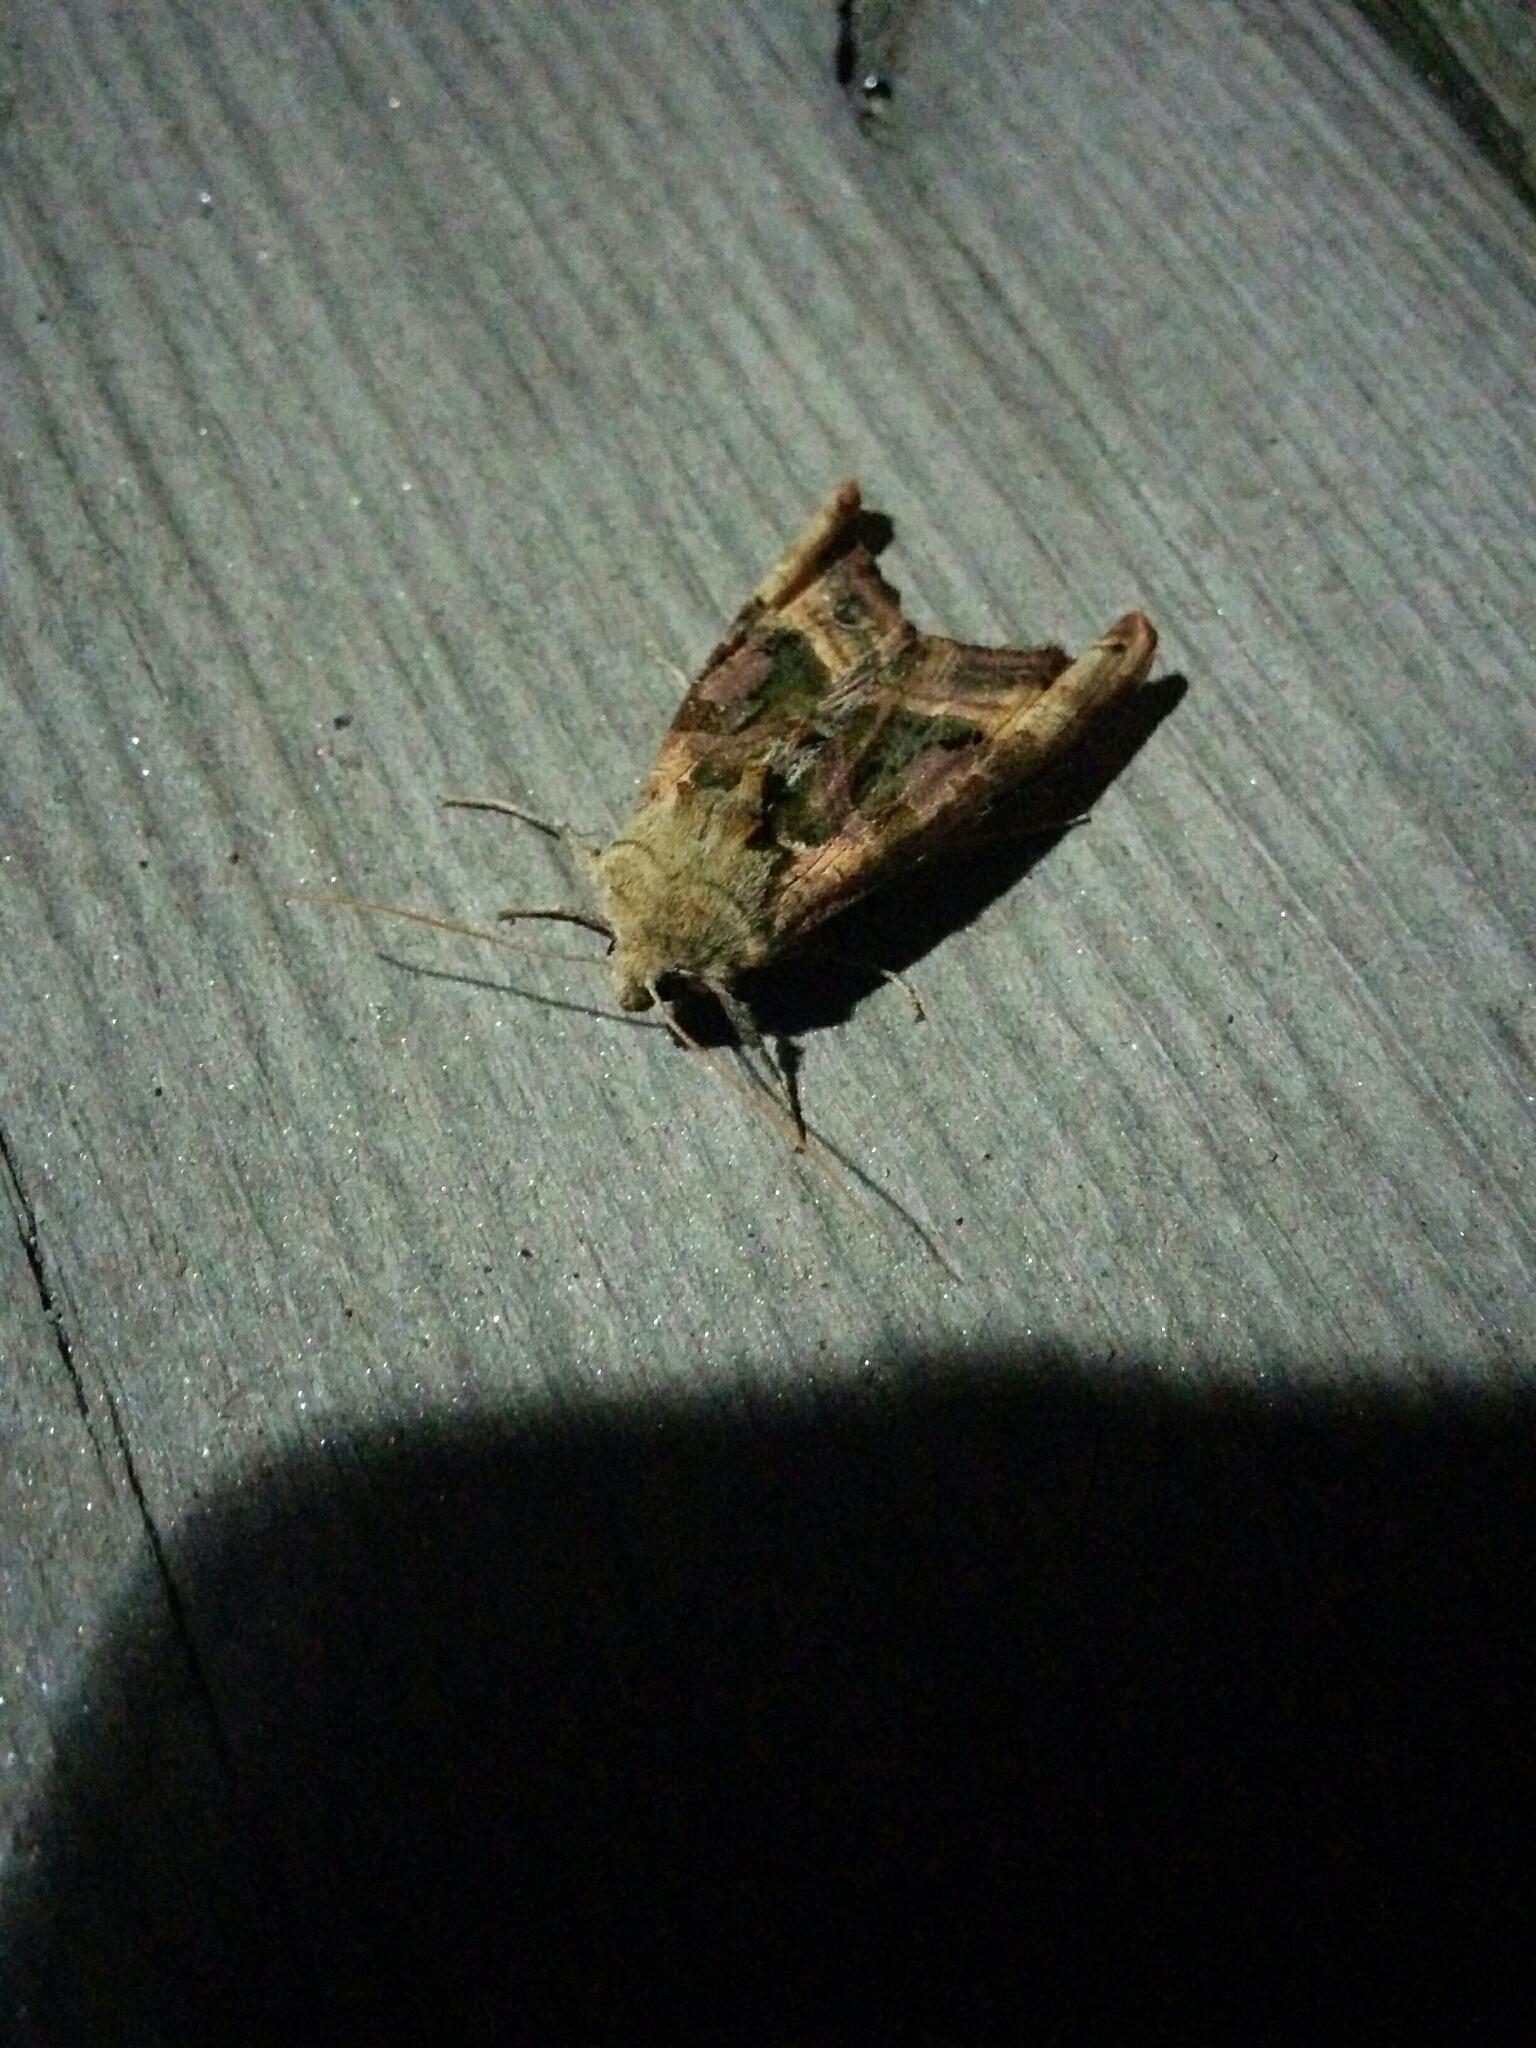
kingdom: Animalia
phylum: Arthropoda
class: Insecta
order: Lepidoptera
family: Noctuidae
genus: Phlogophora
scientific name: Phlogophora iris
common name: Olive angle shades
